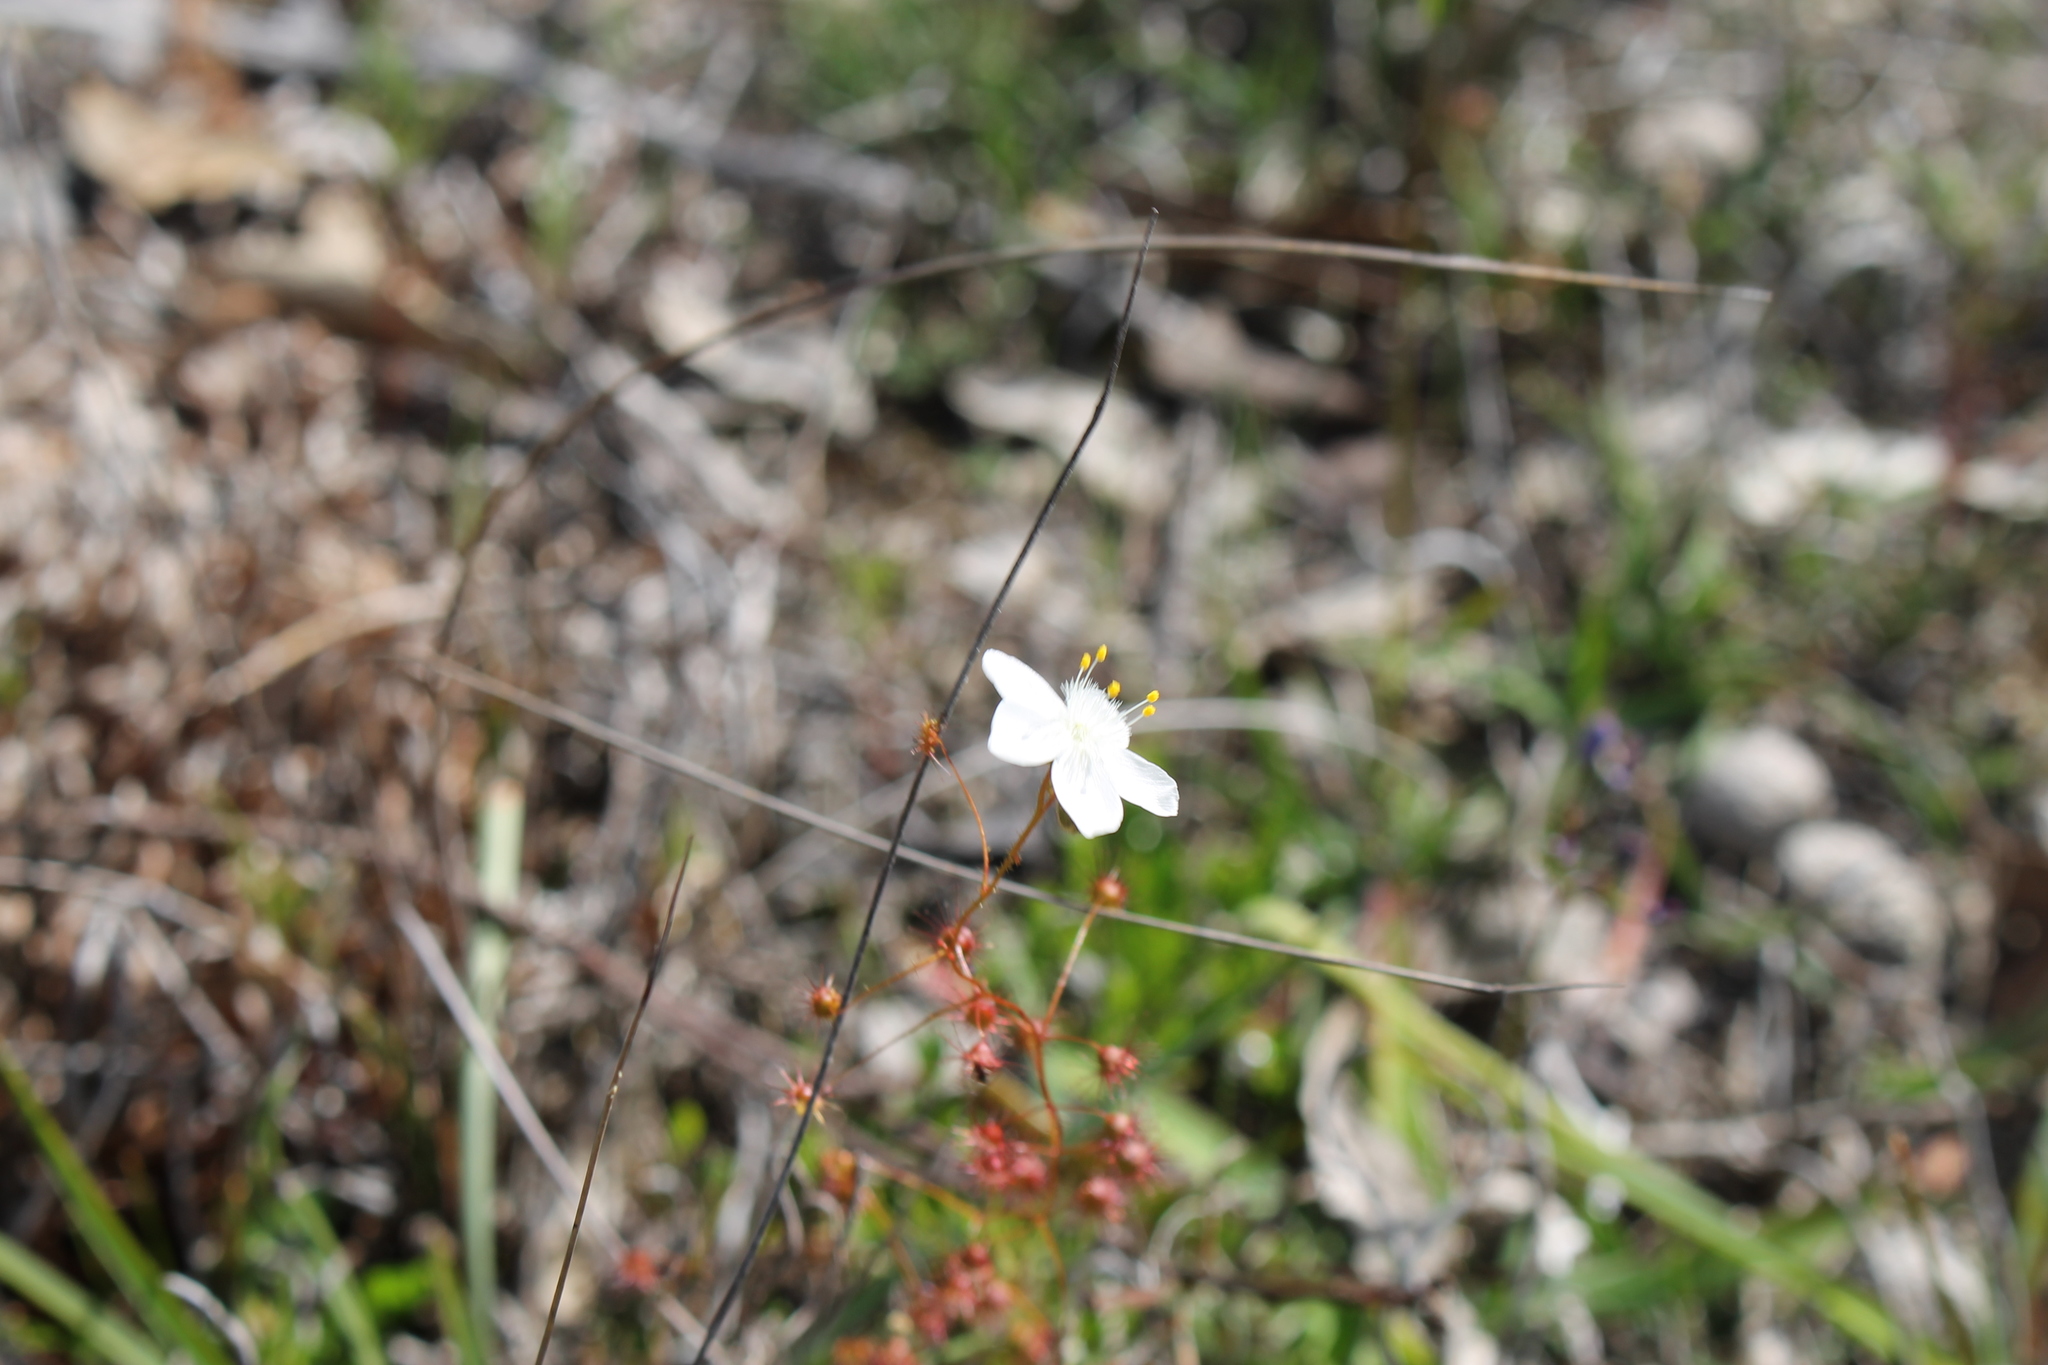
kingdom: Plantae
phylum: Tracheophyta
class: Magnoliopsida
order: Caryophyllales
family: Droseraceae
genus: Drosera
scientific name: Drosera macrantha
